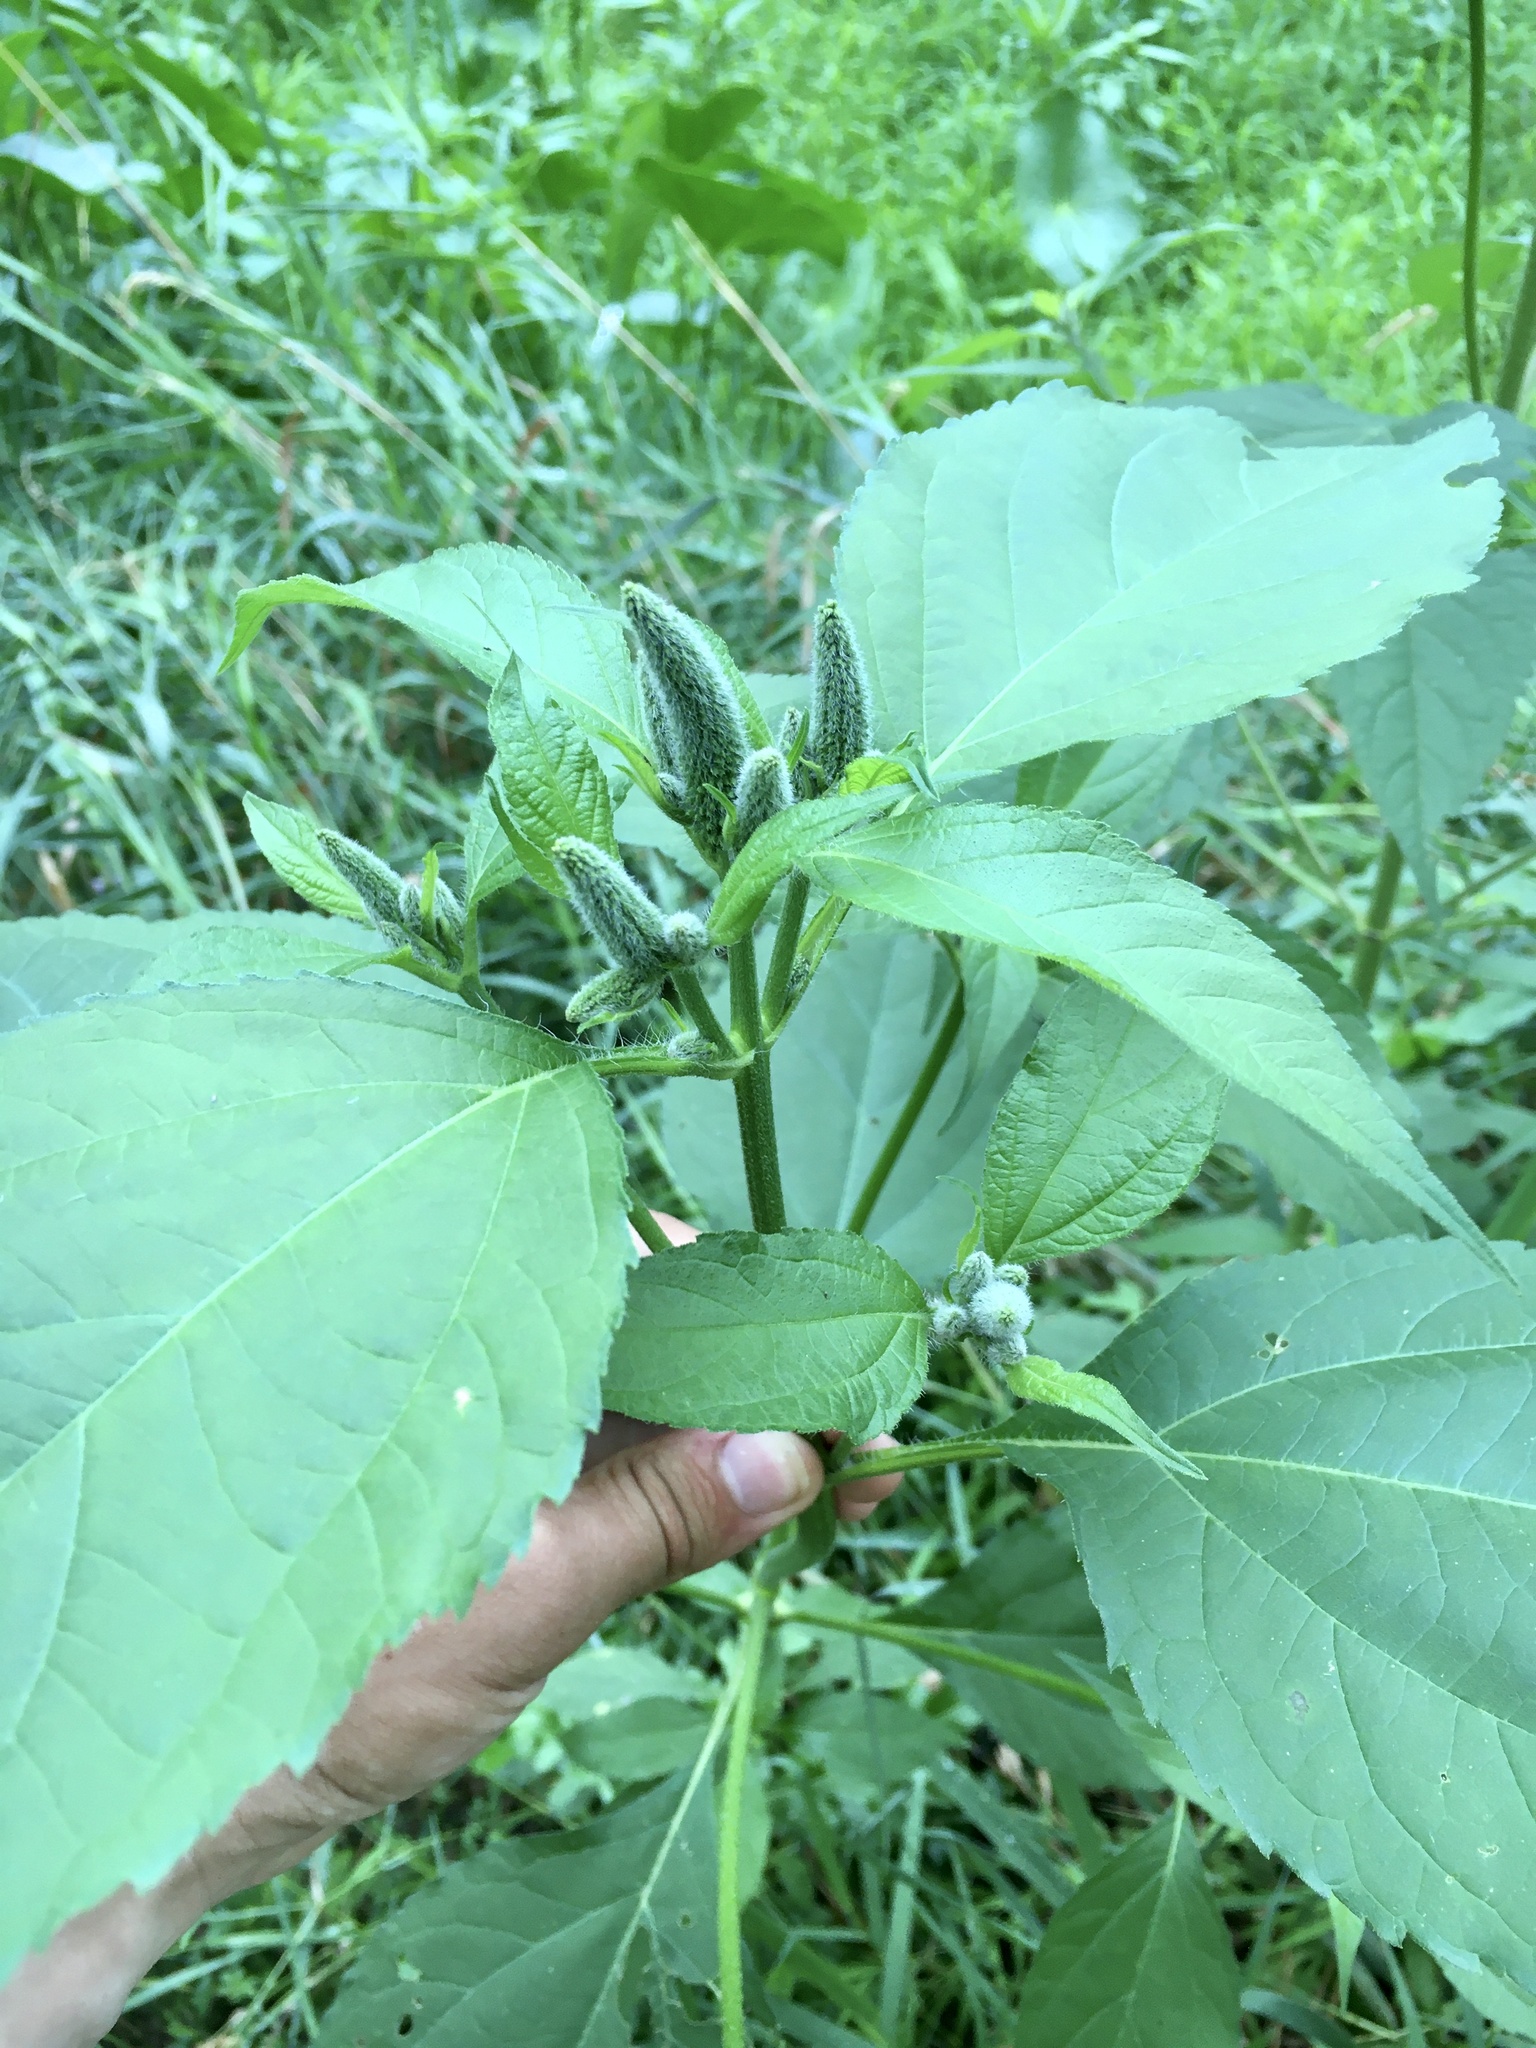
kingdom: Plantae
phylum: Tracheophyta
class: Magnoliopsida
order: Asterales
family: Asteraceae
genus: Ambrosia
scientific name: Ambrosia trifida
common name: Giant ragweed
